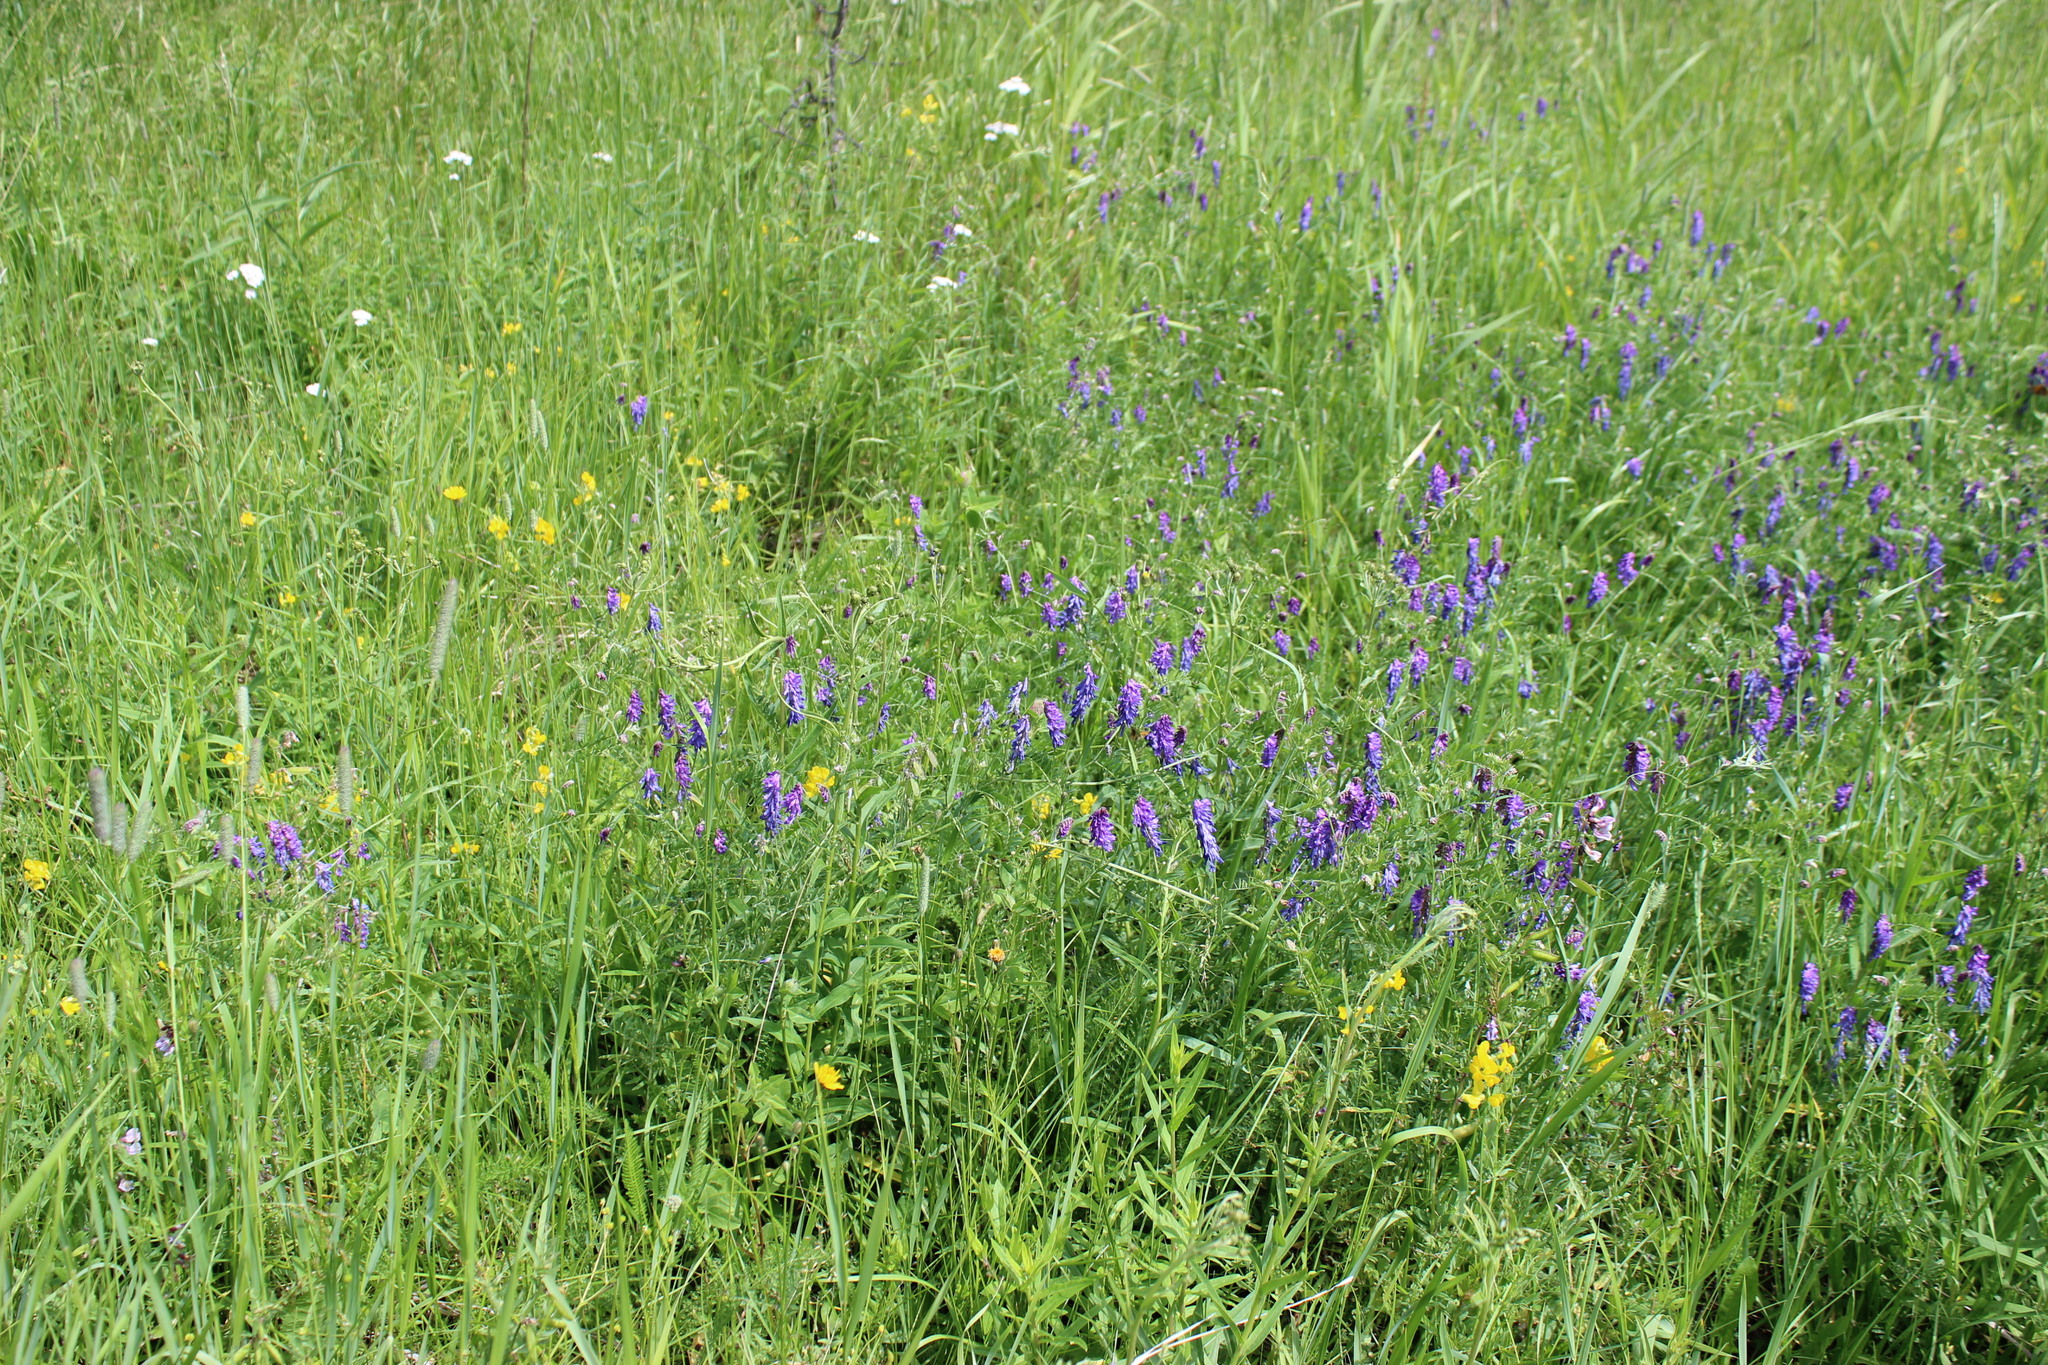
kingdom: Plantae
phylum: Tracheophyta
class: Magnoliopsida
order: Fabales
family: Fabaceae
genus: Vicia
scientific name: Vicia cracca
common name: Bird vetch
